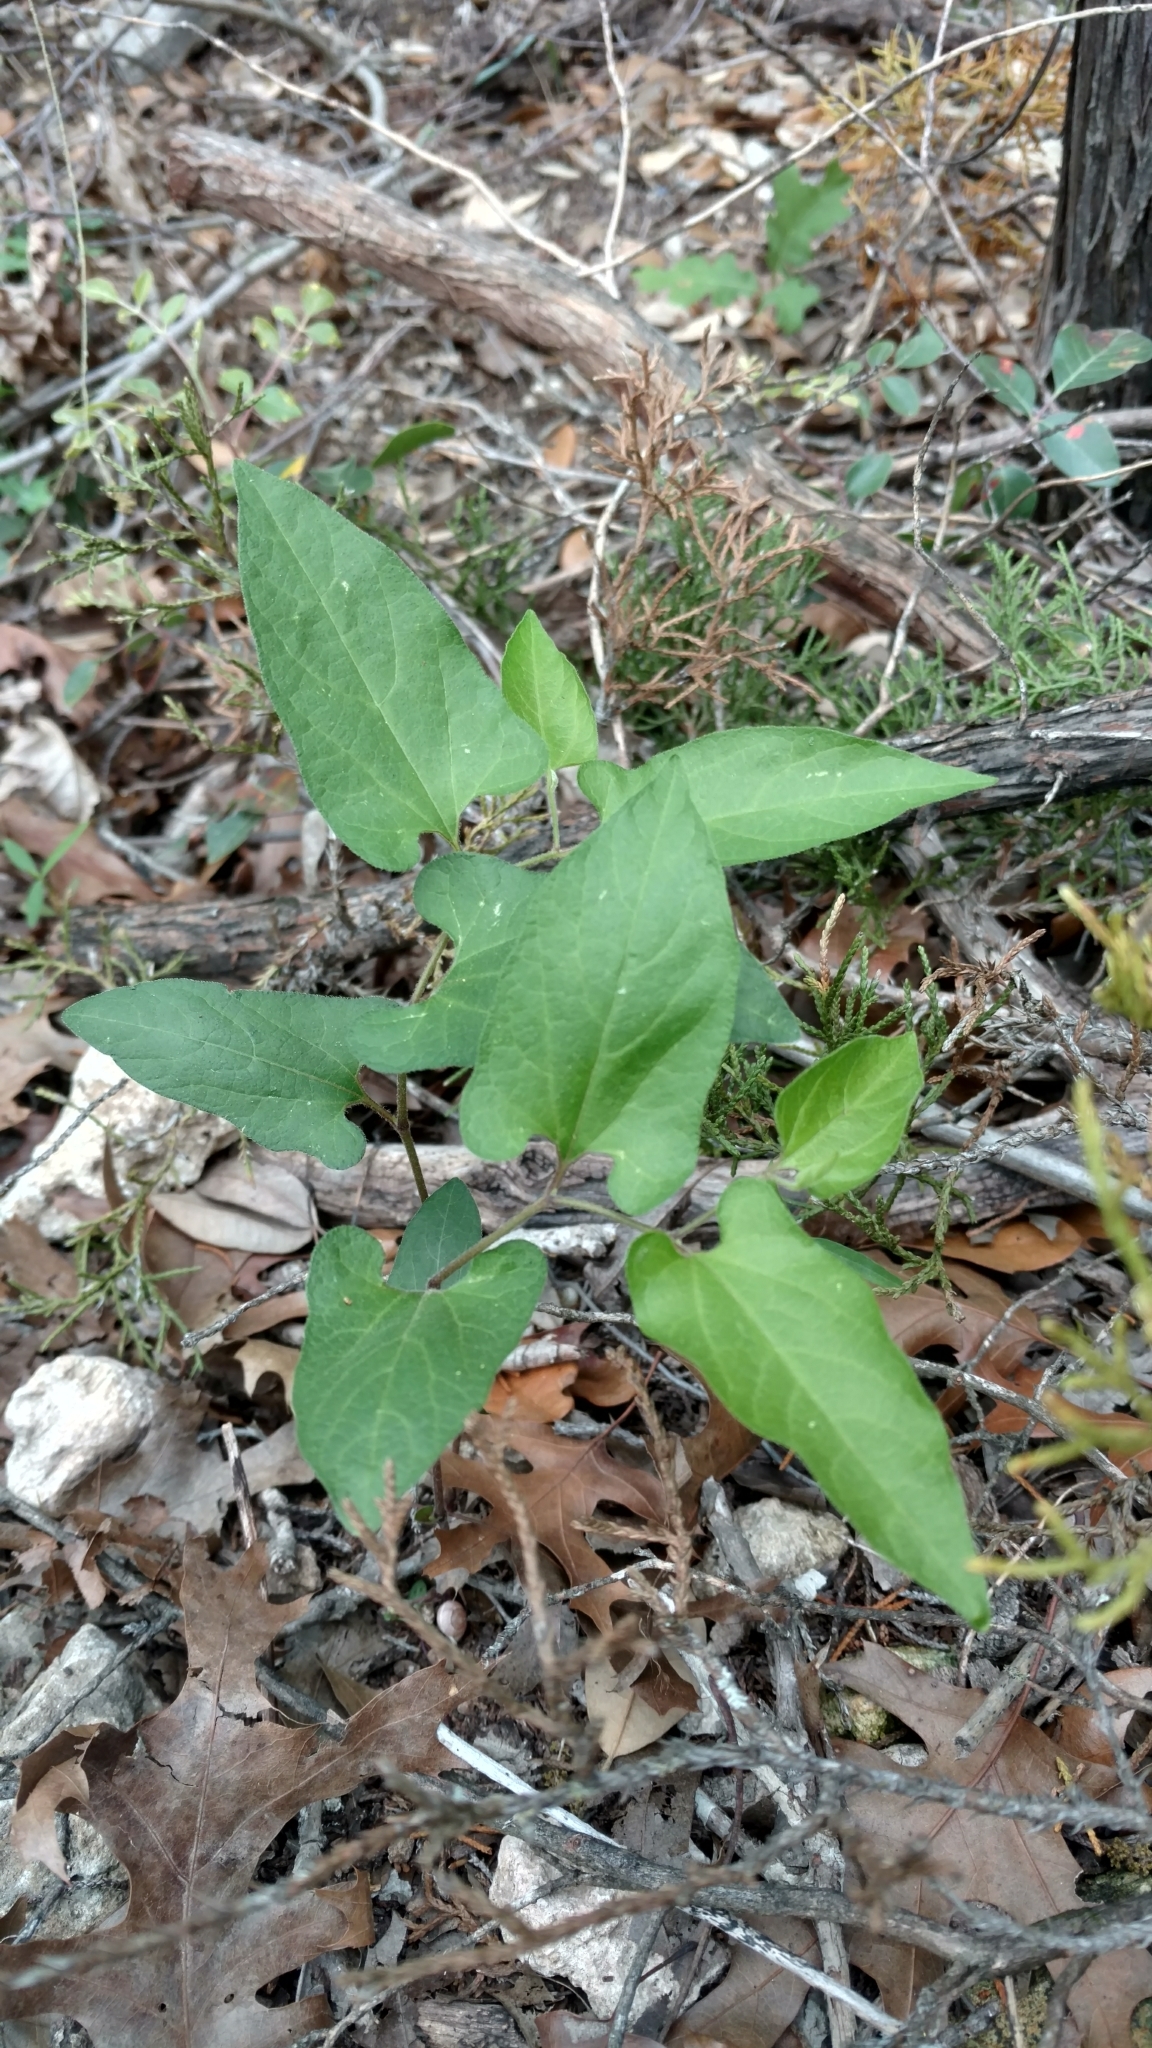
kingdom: Plantae
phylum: Tracheophyta
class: Magnoliopsida
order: Piperales
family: Aristolochiaceae
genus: Endodeca
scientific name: Endodeca serpentaria
